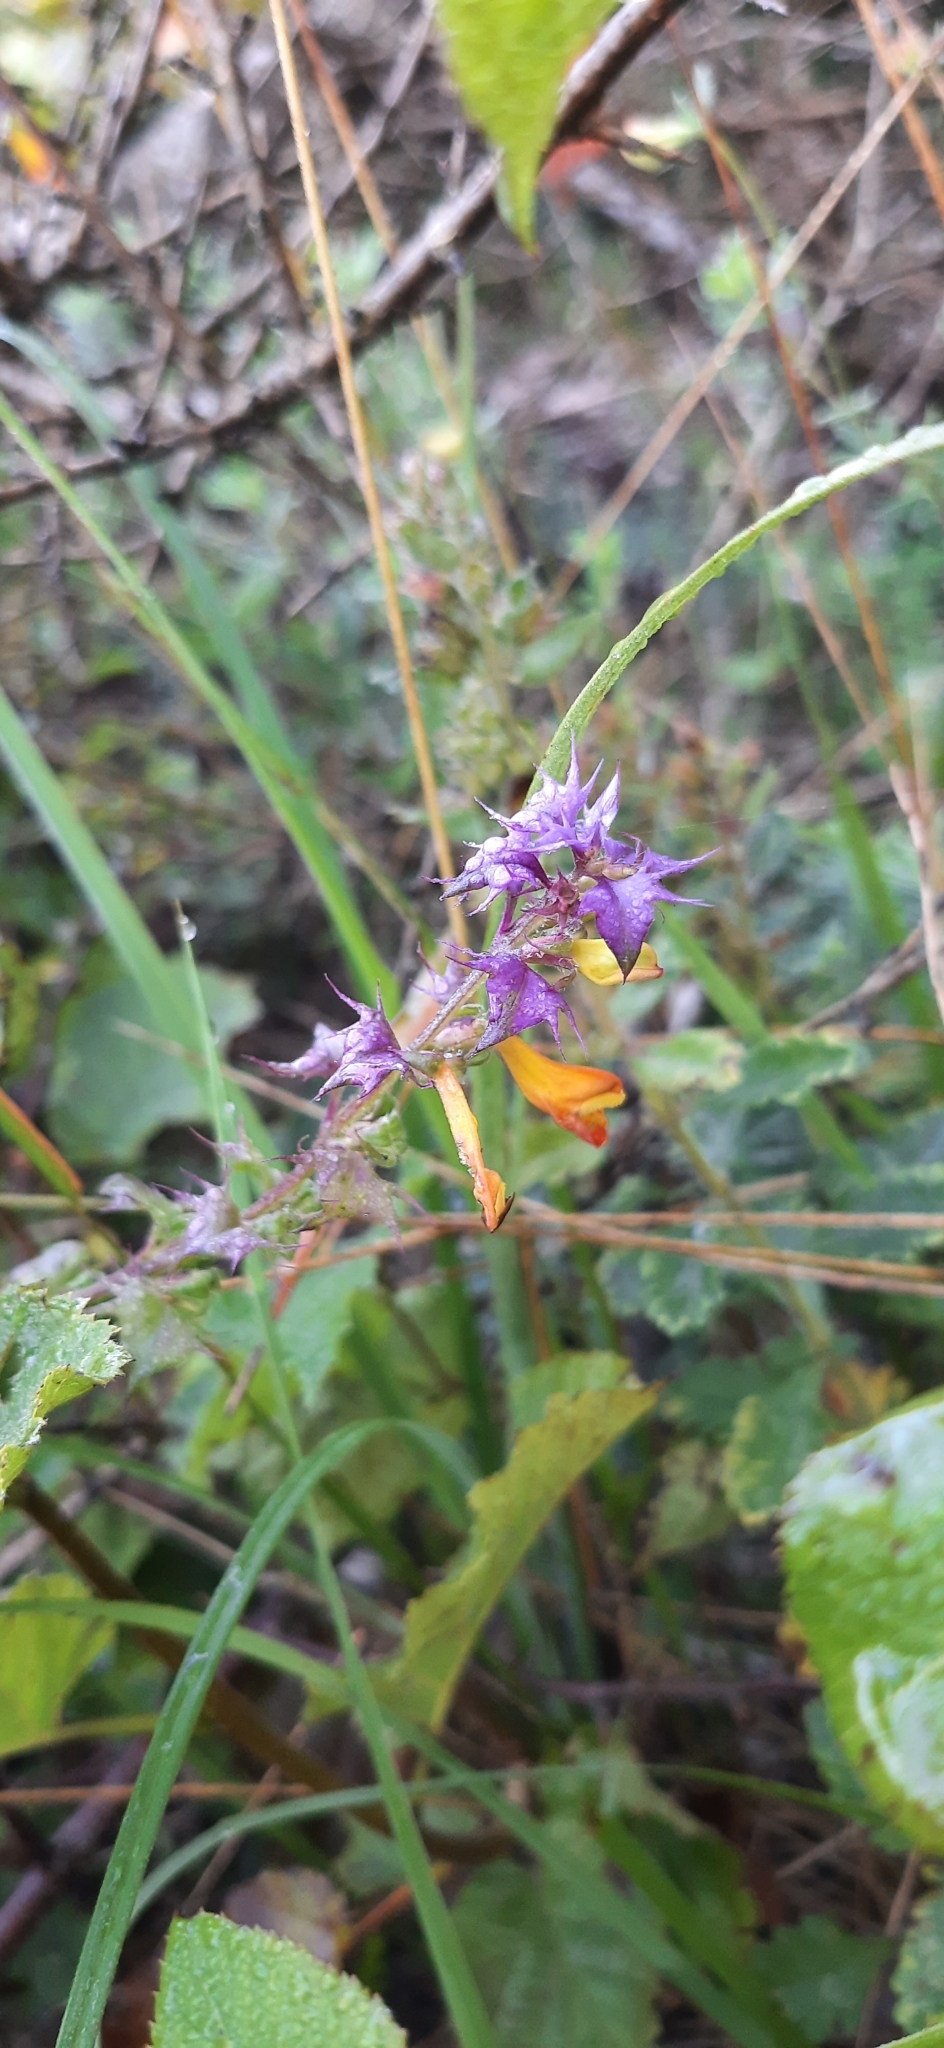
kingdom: Plantae
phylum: Tracheophyta
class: Magnoliopsida
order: Lamiales
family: Orobanchaceae
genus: Melampyrum
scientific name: Melampyrum nemorosum
